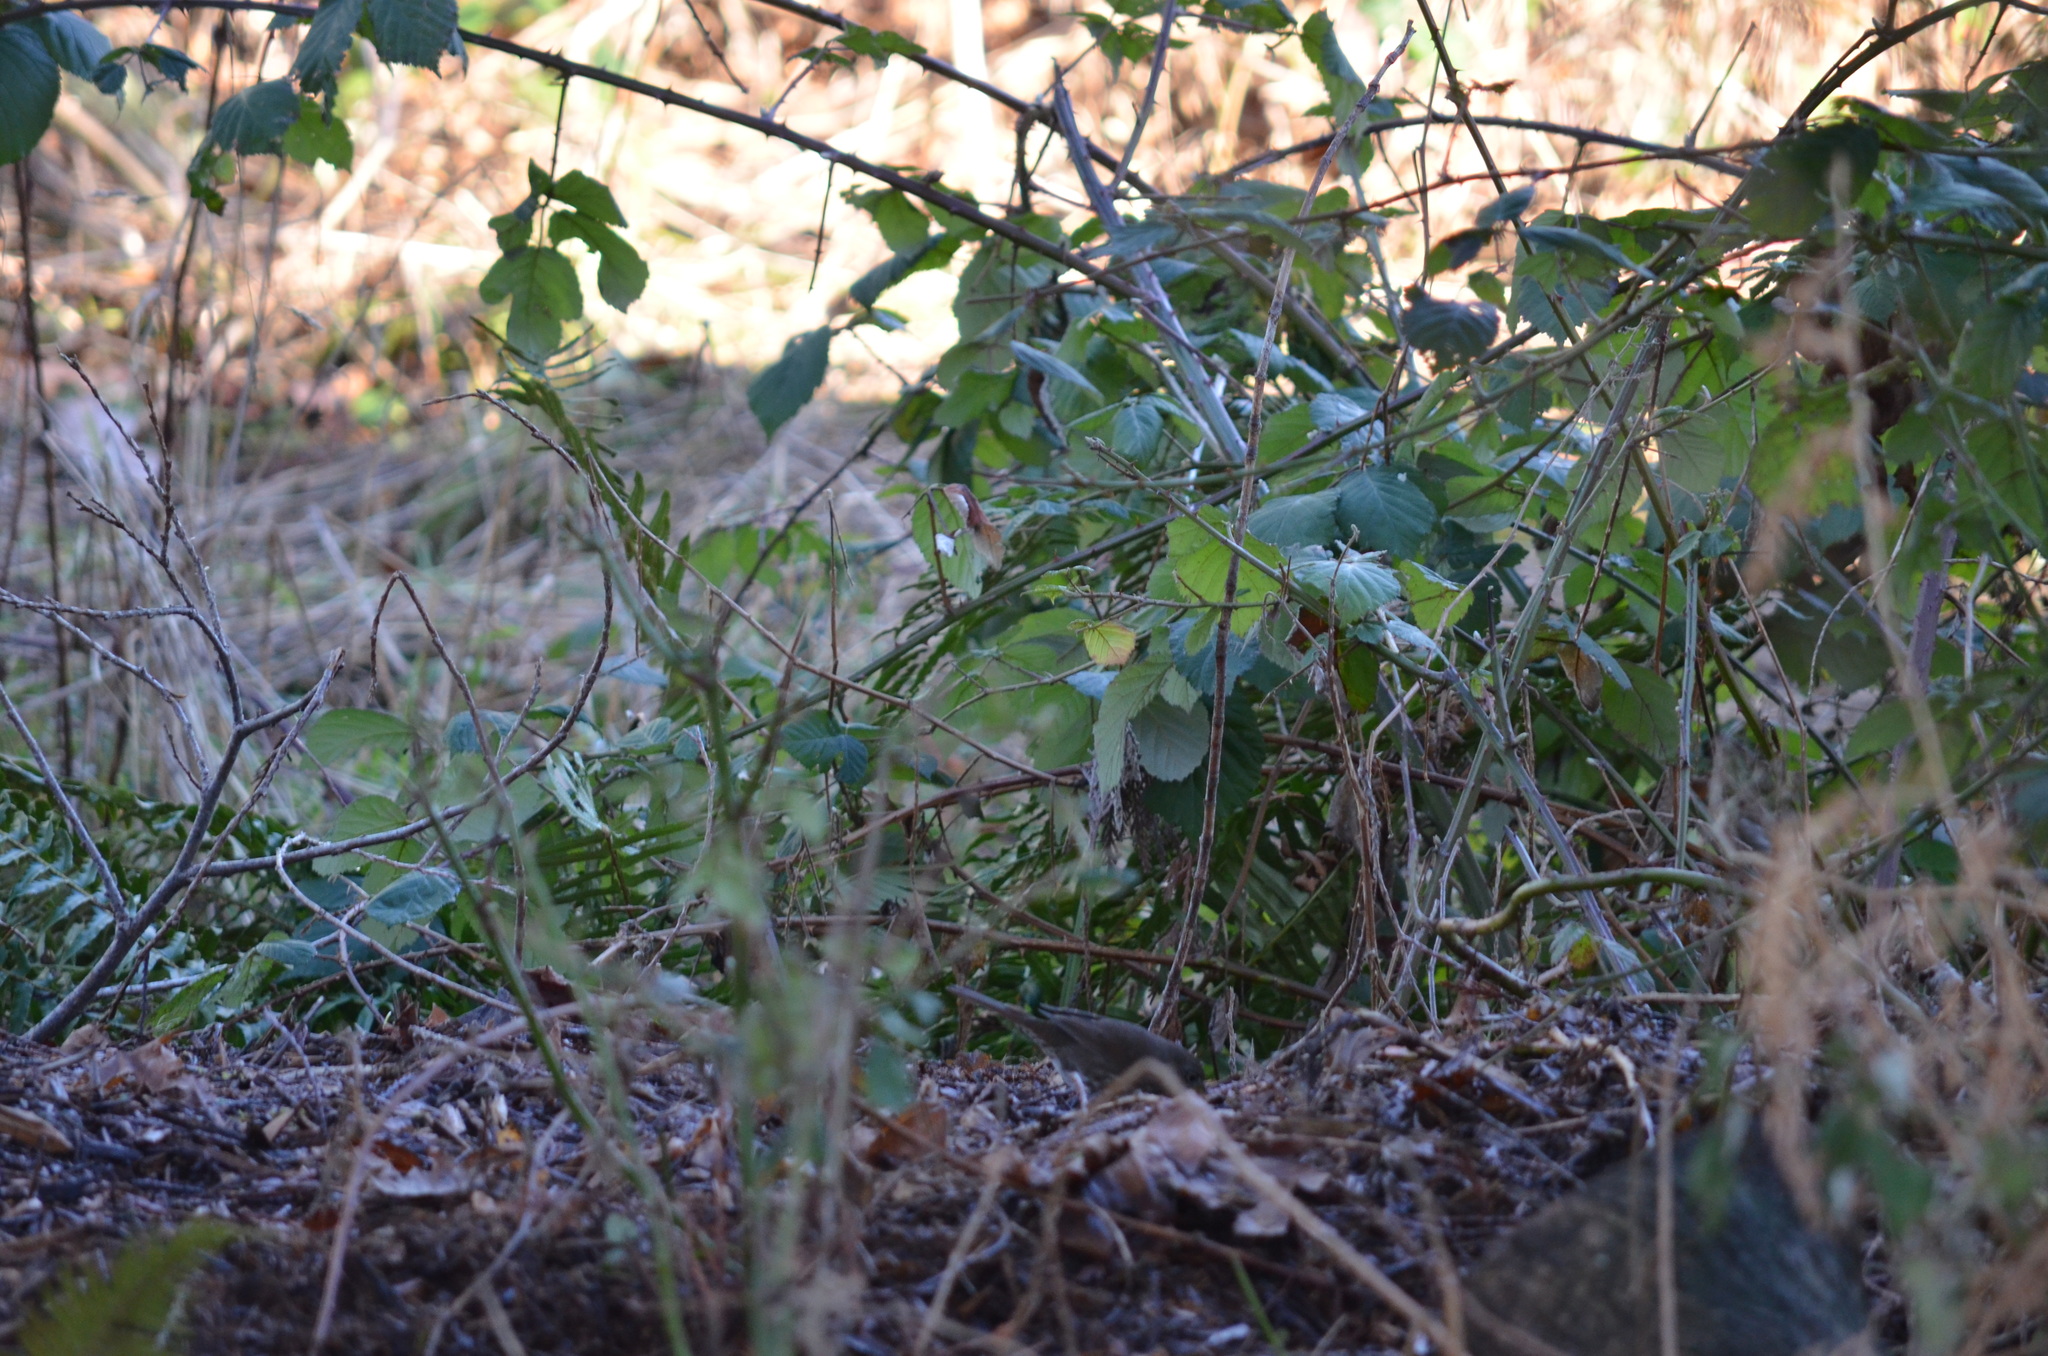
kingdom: Animalia
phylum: Chordata
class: Aves
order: Passeriformes
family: Passerellidae
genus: Passerella
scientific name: Passerella iliaca
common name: Fox sparrow
